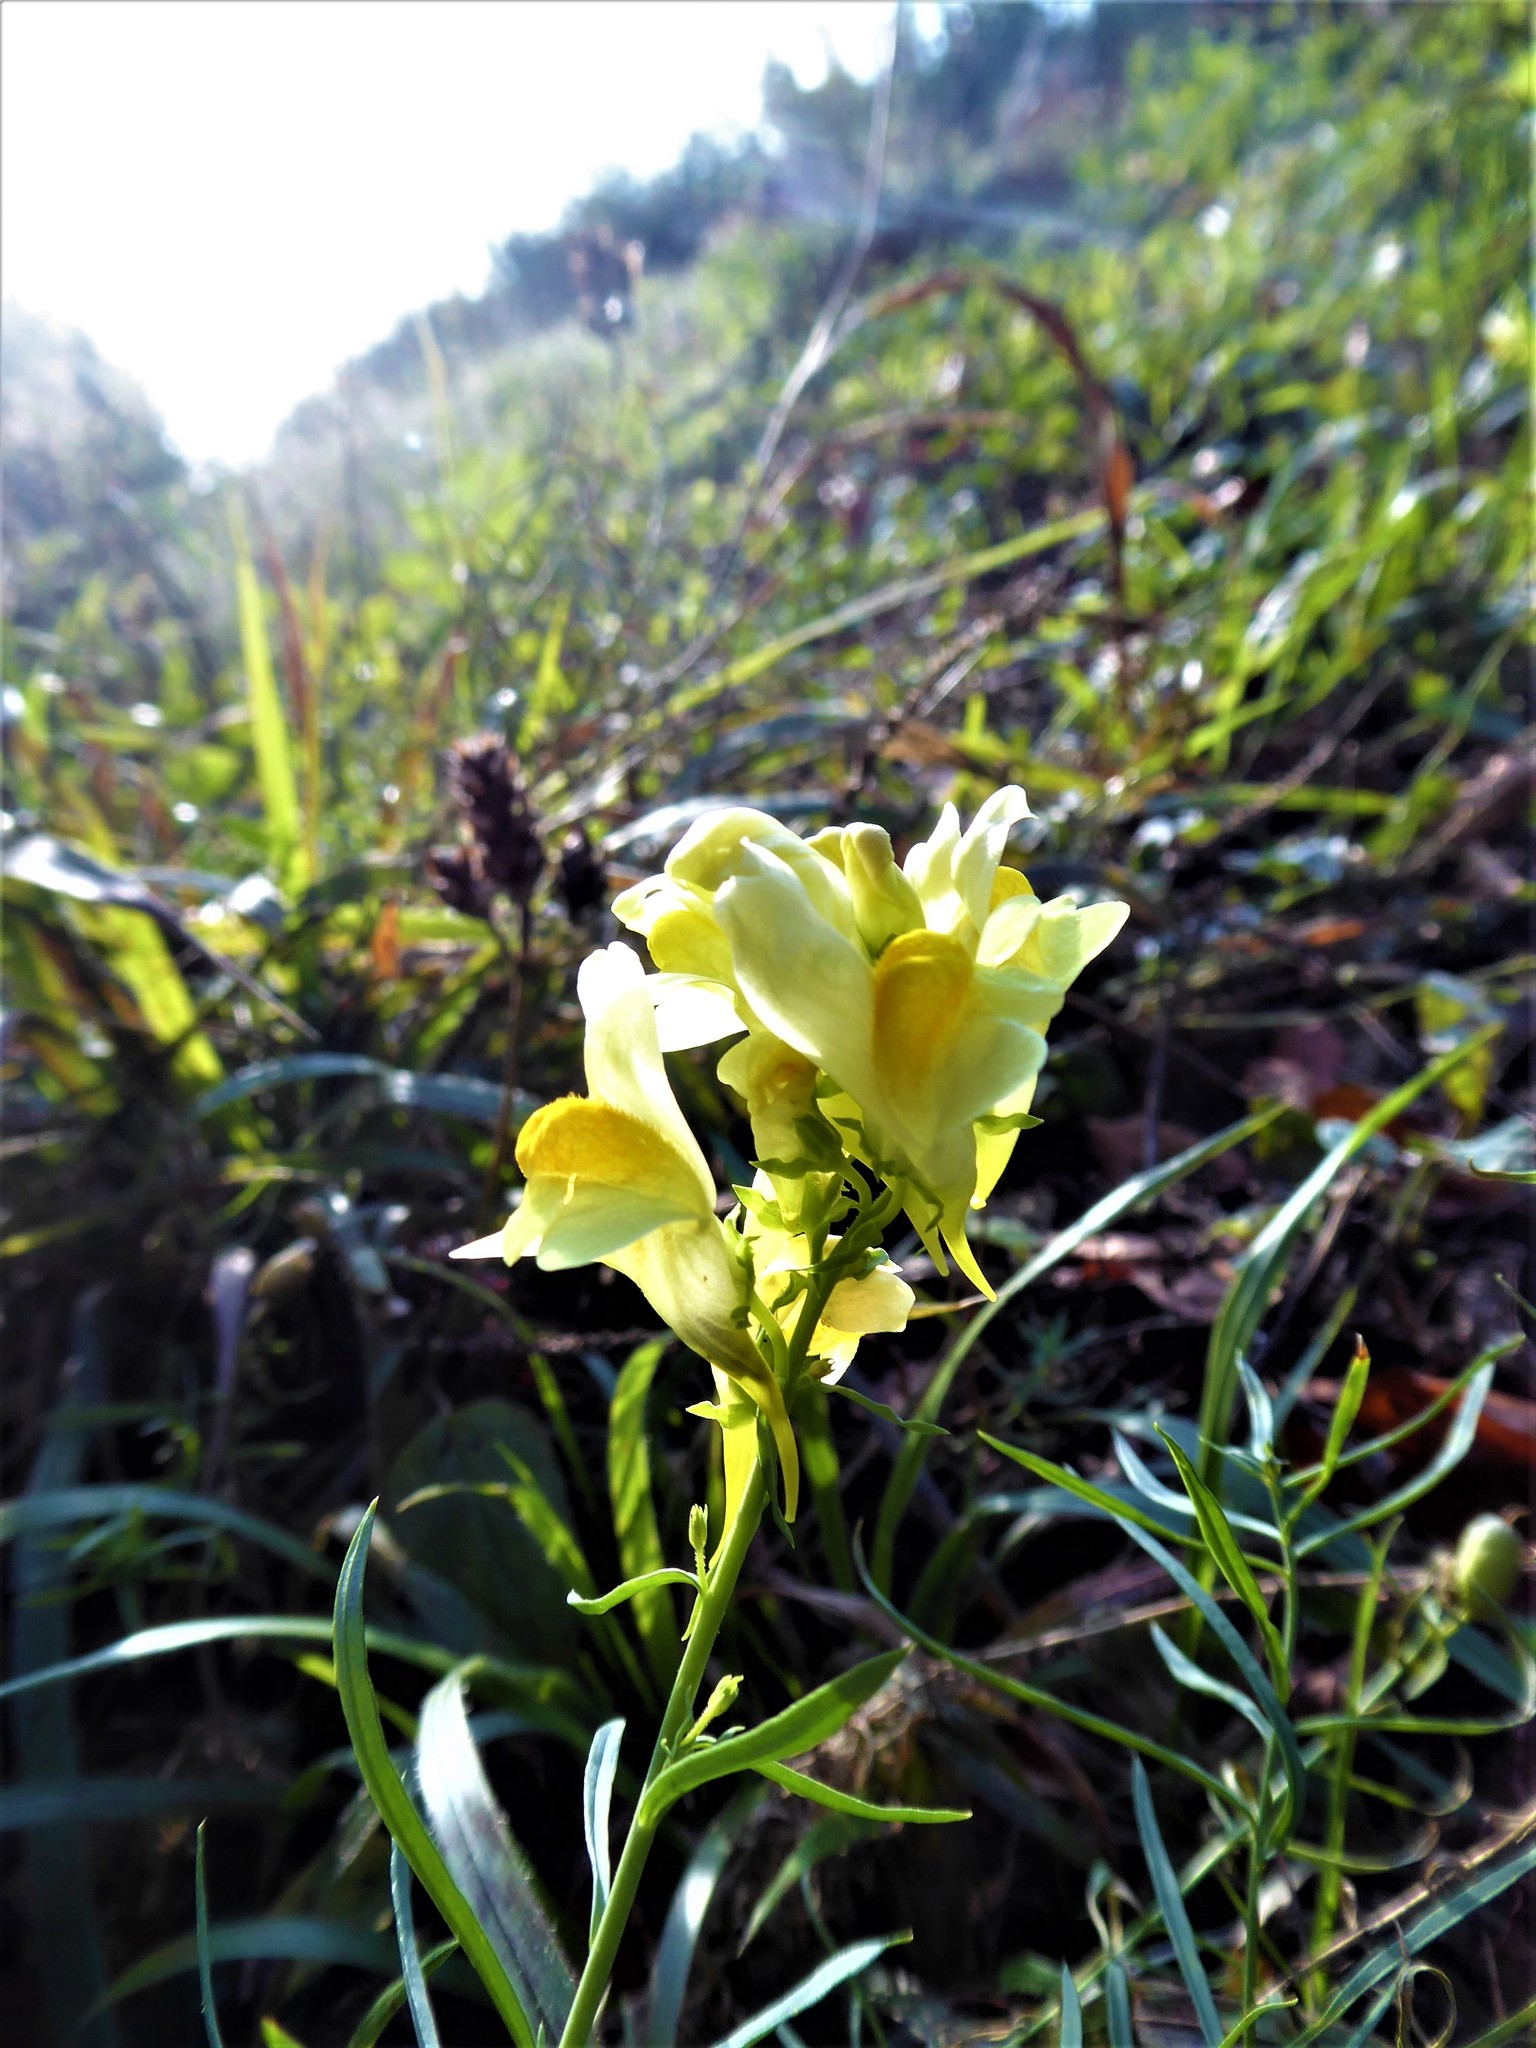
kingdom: Plantae
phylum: Tracheophyta
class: Magnoliopsida
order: Lamiales
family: Plantaginaceae
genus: Linaria
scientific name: Linaria vulgaris
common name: Butter and eggs
